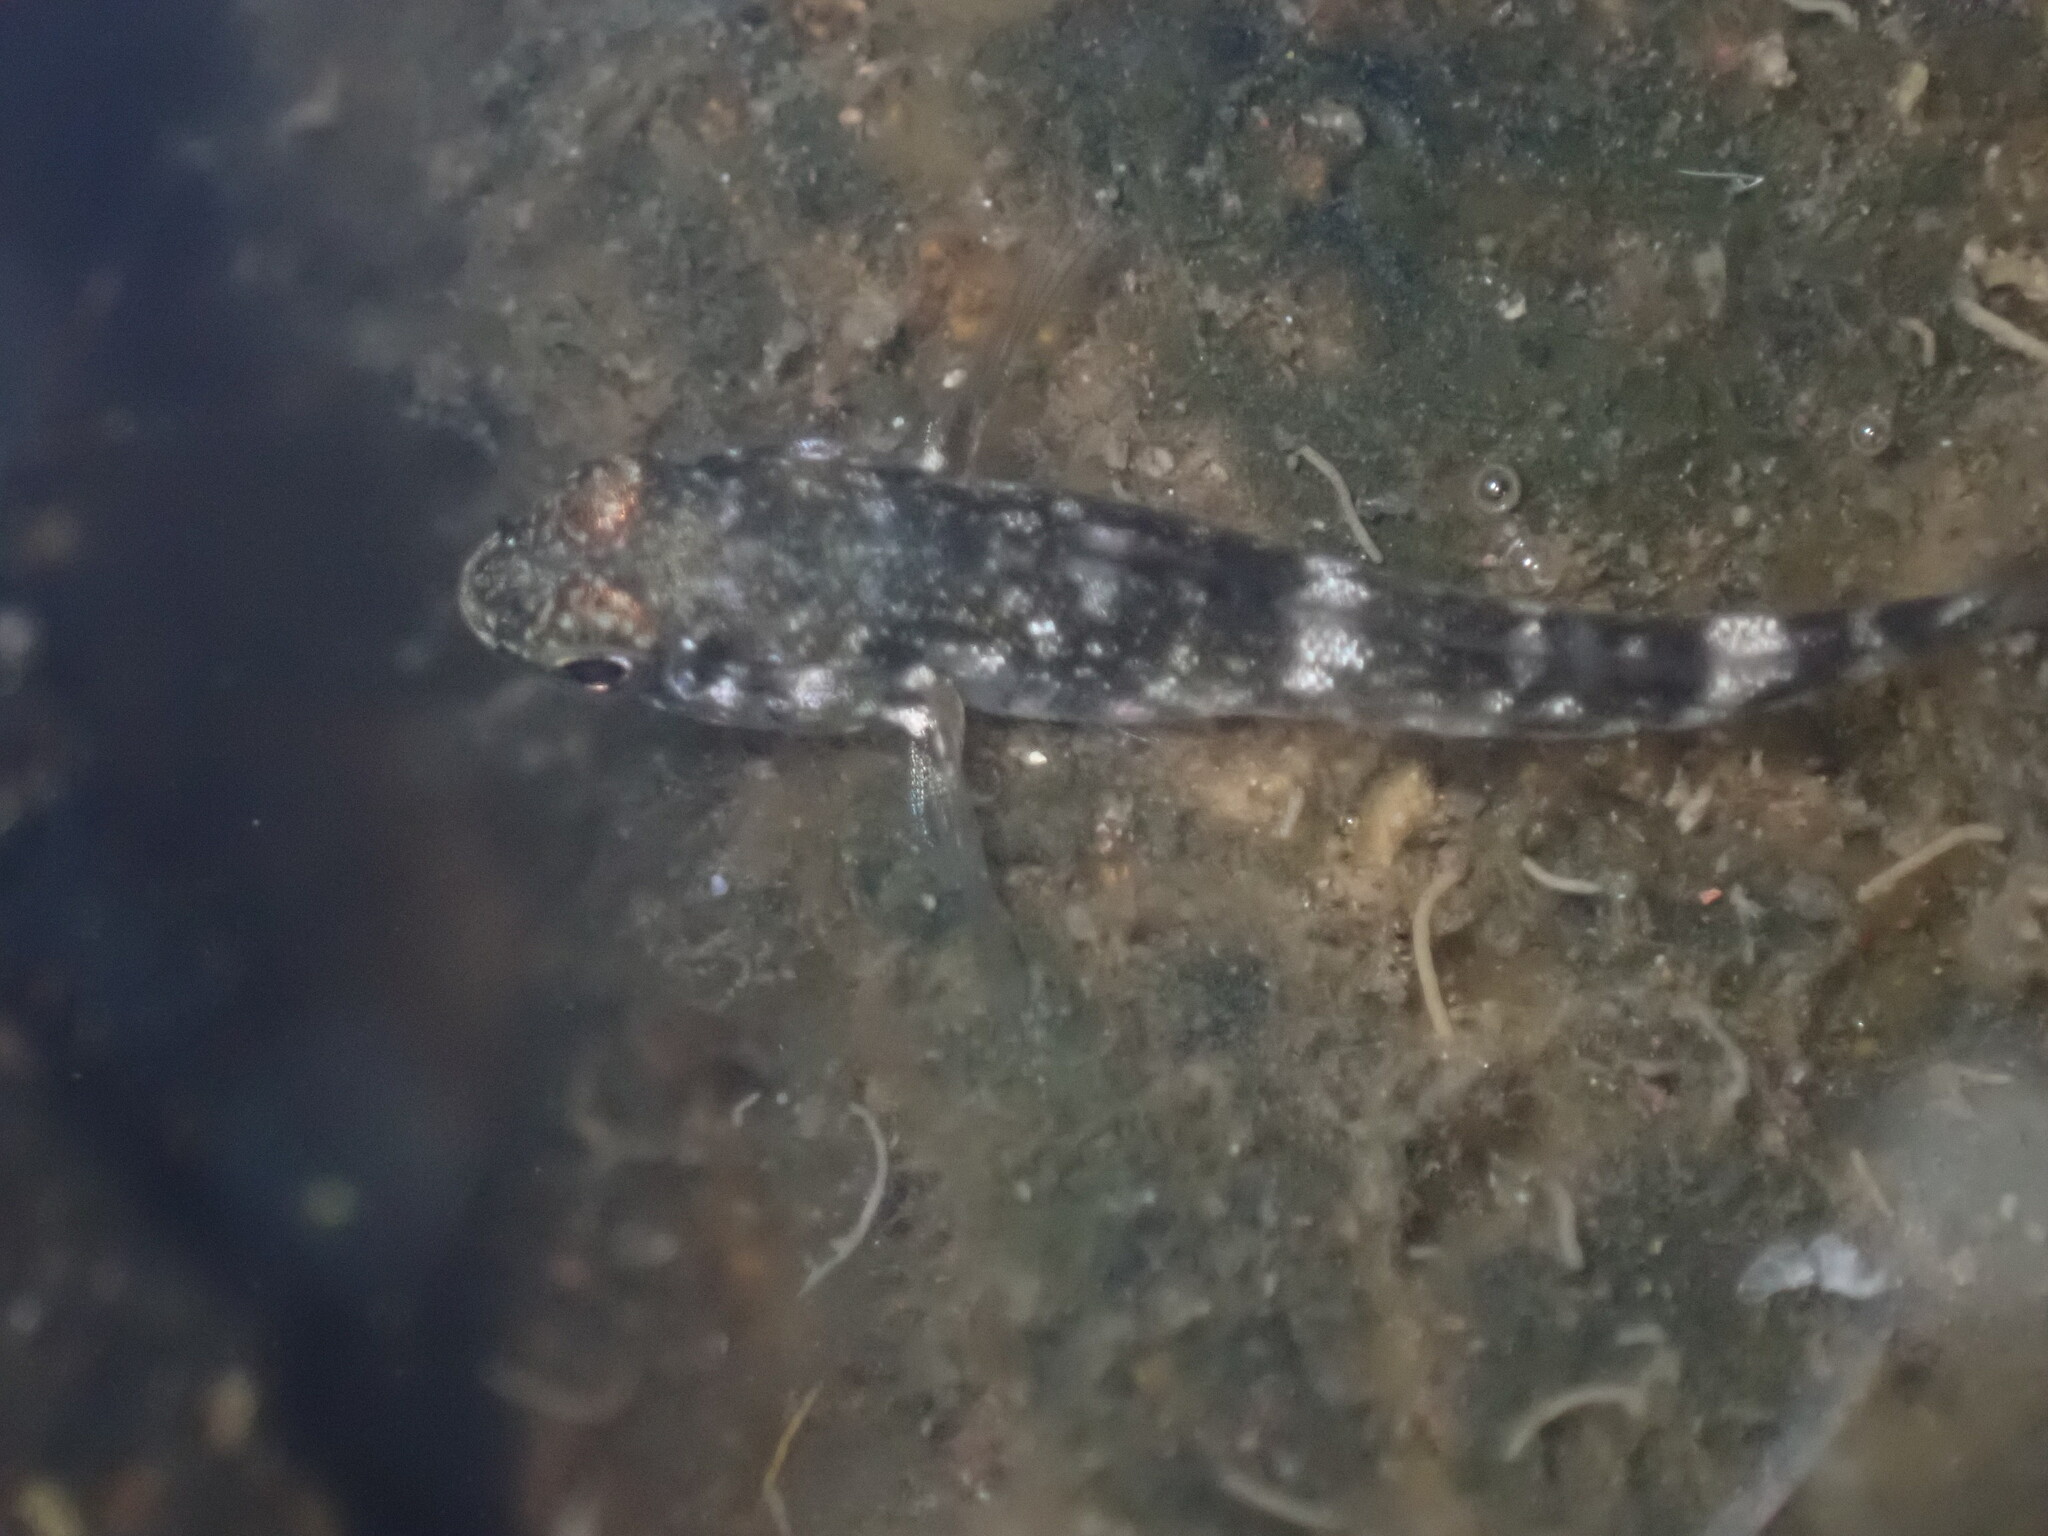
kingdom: Animalia
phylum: Chordata
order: Perciformes
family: Gobiidae
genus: Mauligobius
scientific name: Mauligobius maderensis
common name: Rock goby
